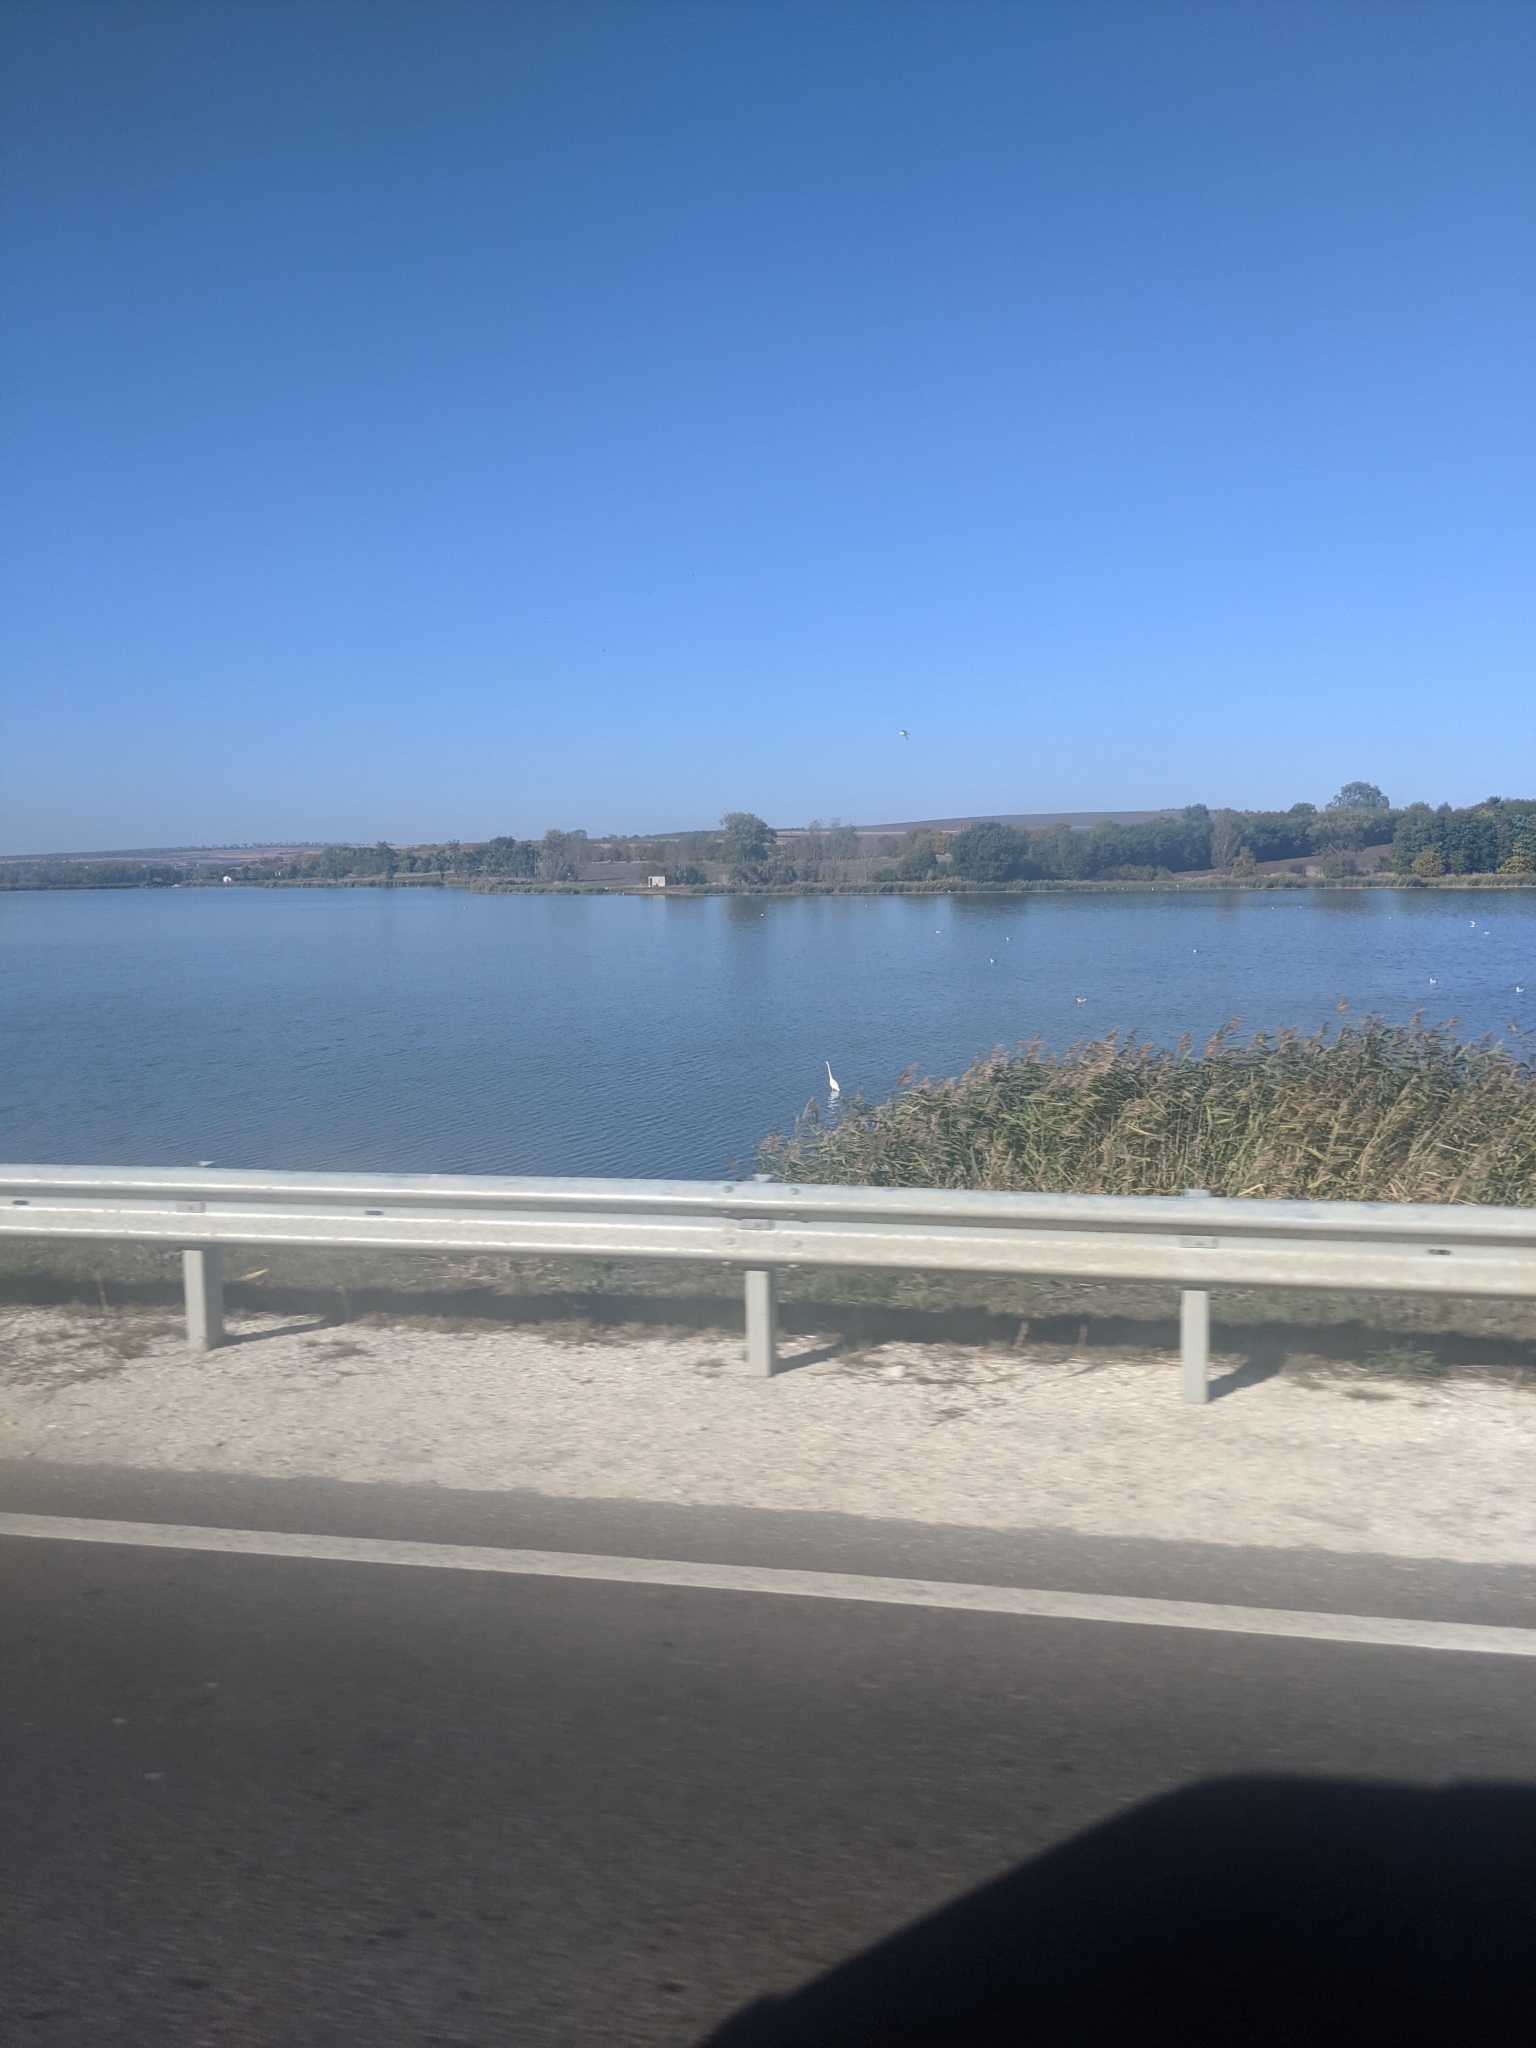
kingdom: Animalia
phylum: Chordata
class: Aves
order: Pelecaniformes
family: Ardeidae
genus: Ardea
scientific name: Ardea alba
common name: Great egret
